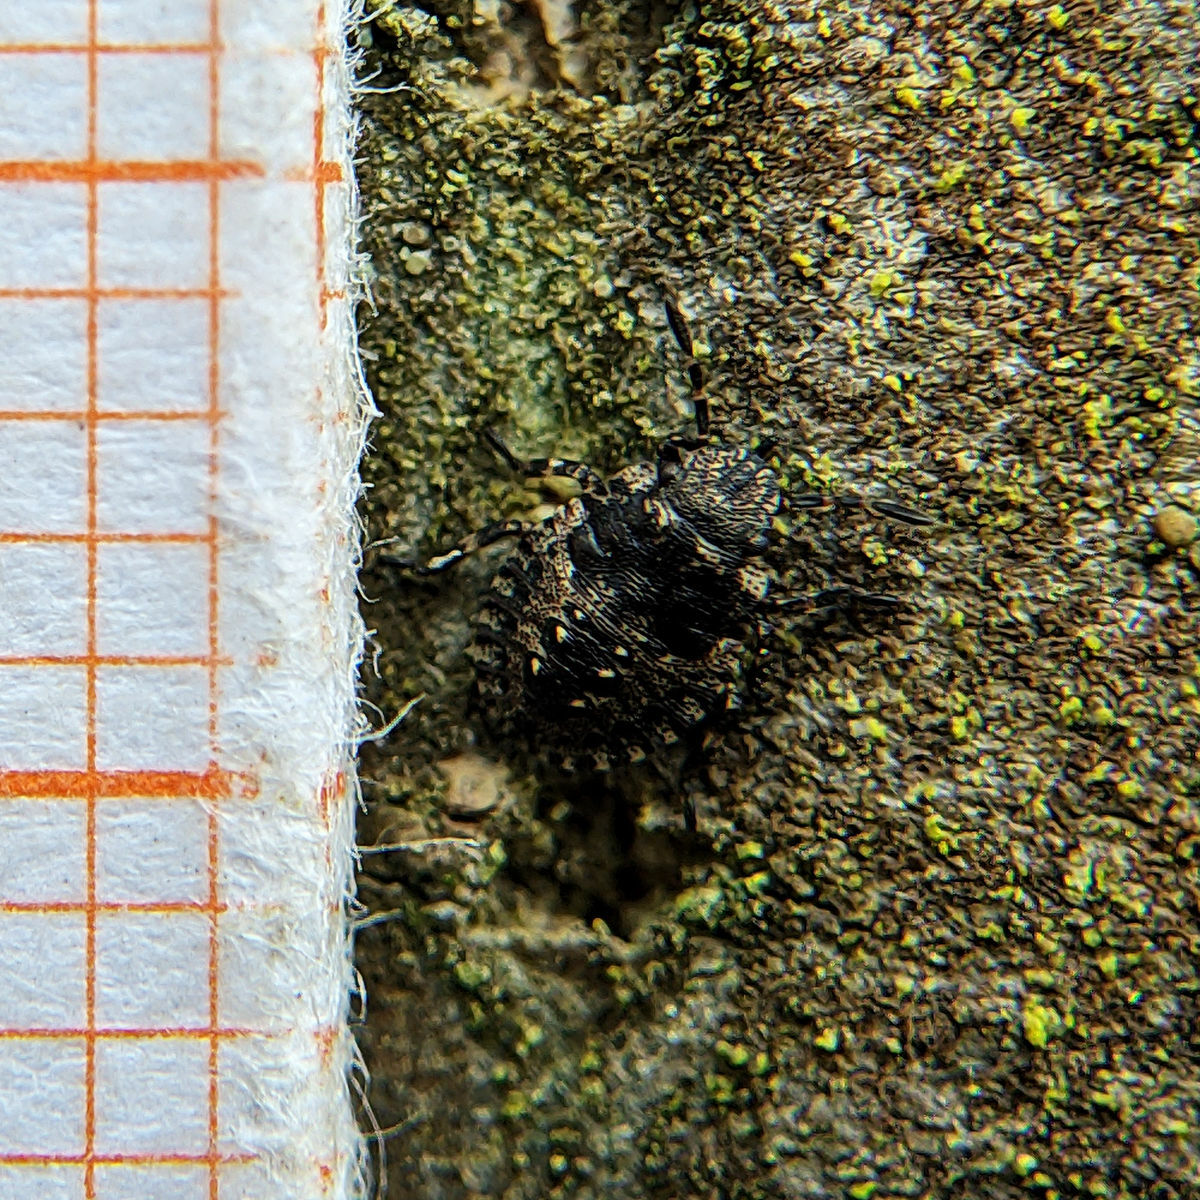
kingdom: Animalia
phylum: Arthropoda
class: Insecta
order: Hemiptera
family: Pentatomidae
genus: Pentatoma
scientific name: Pentatoma rufipes
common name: Forest bug
